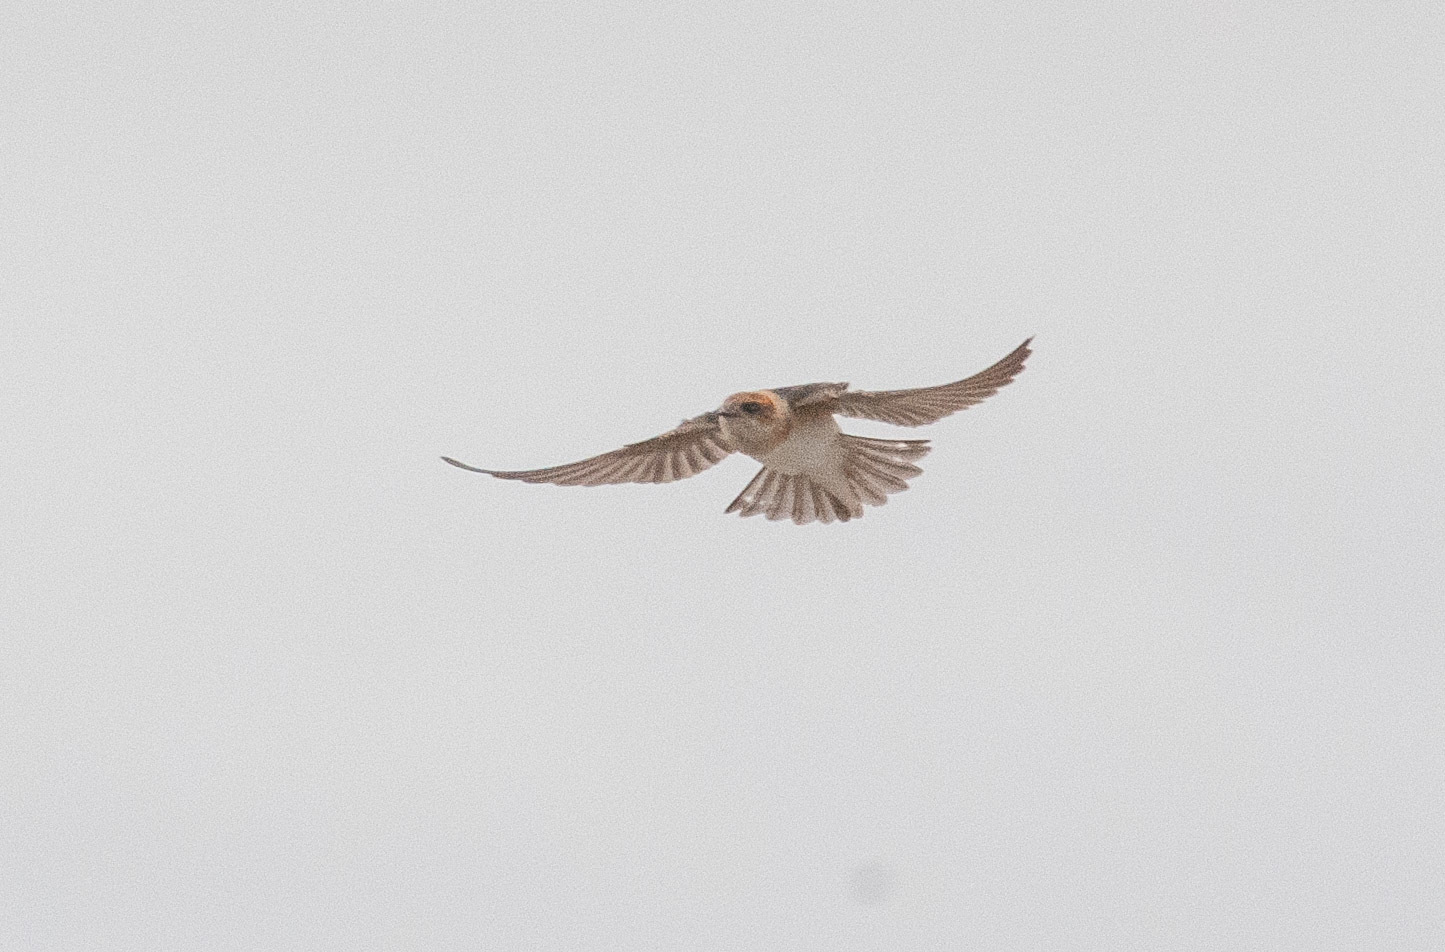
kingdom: Animalia
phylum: Chordata
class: Aves
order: Passeriformes
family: Hirundinidae
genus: Petrochelidon
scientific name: Petrochelidon ariel
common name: Fairy martin
